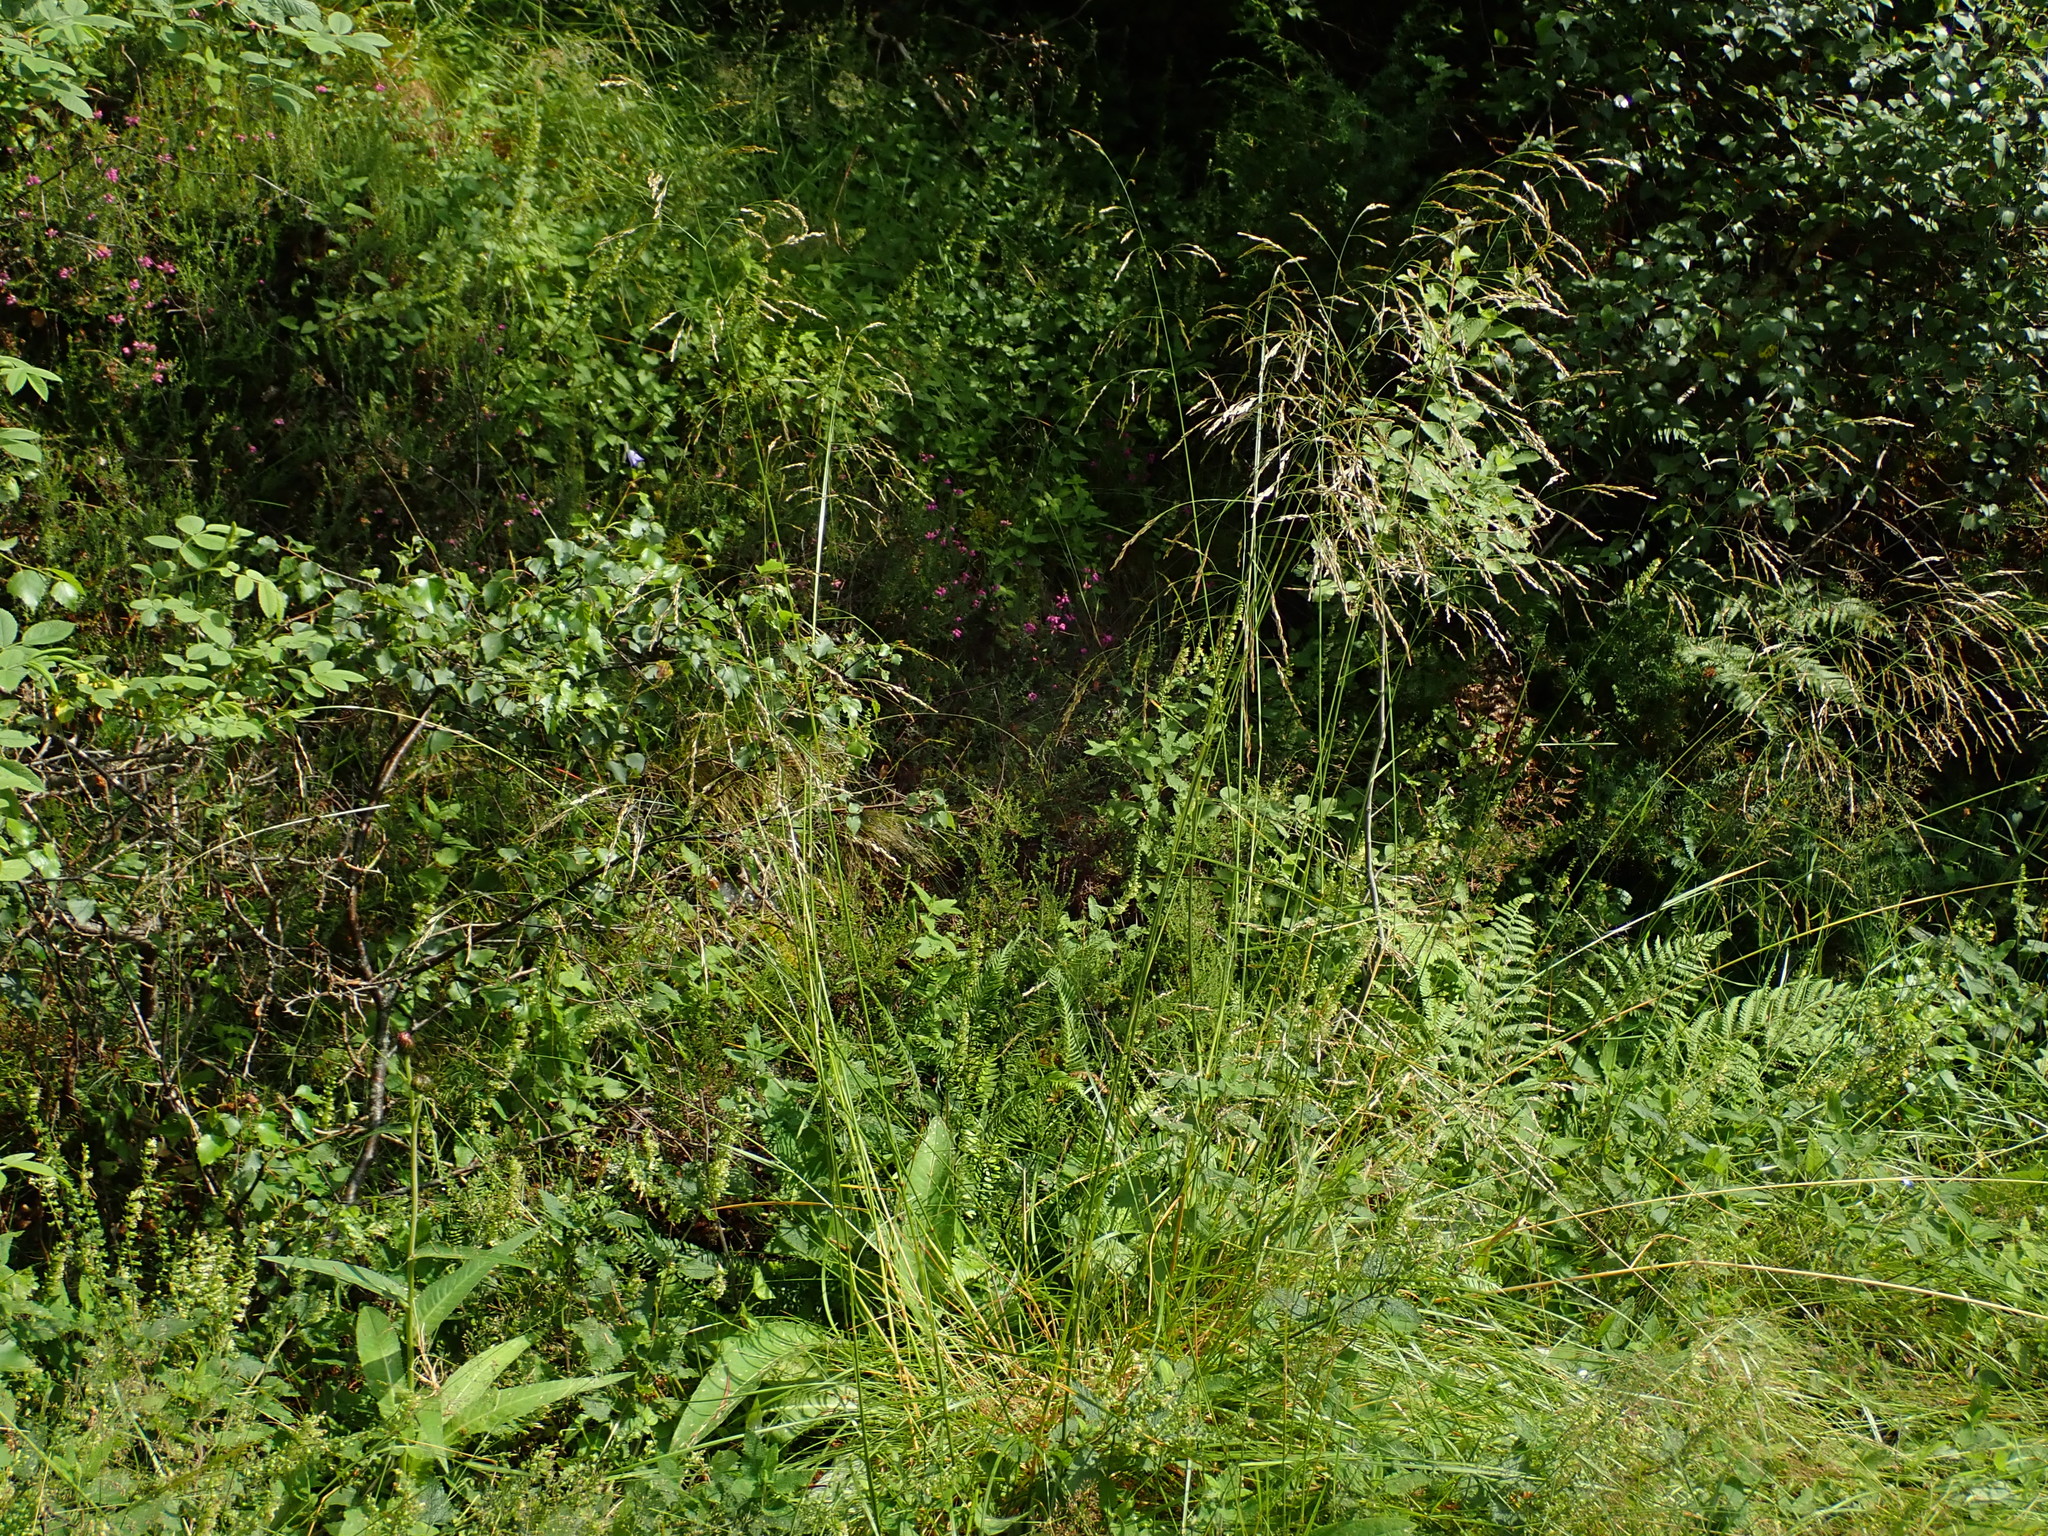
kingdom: Plantae
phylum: Tracheophyta
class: Liliopsida
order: Poales
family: Poaceae
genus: Deschampsia
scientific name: Deschampsia cespitosa
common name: Tufted hair-grass
